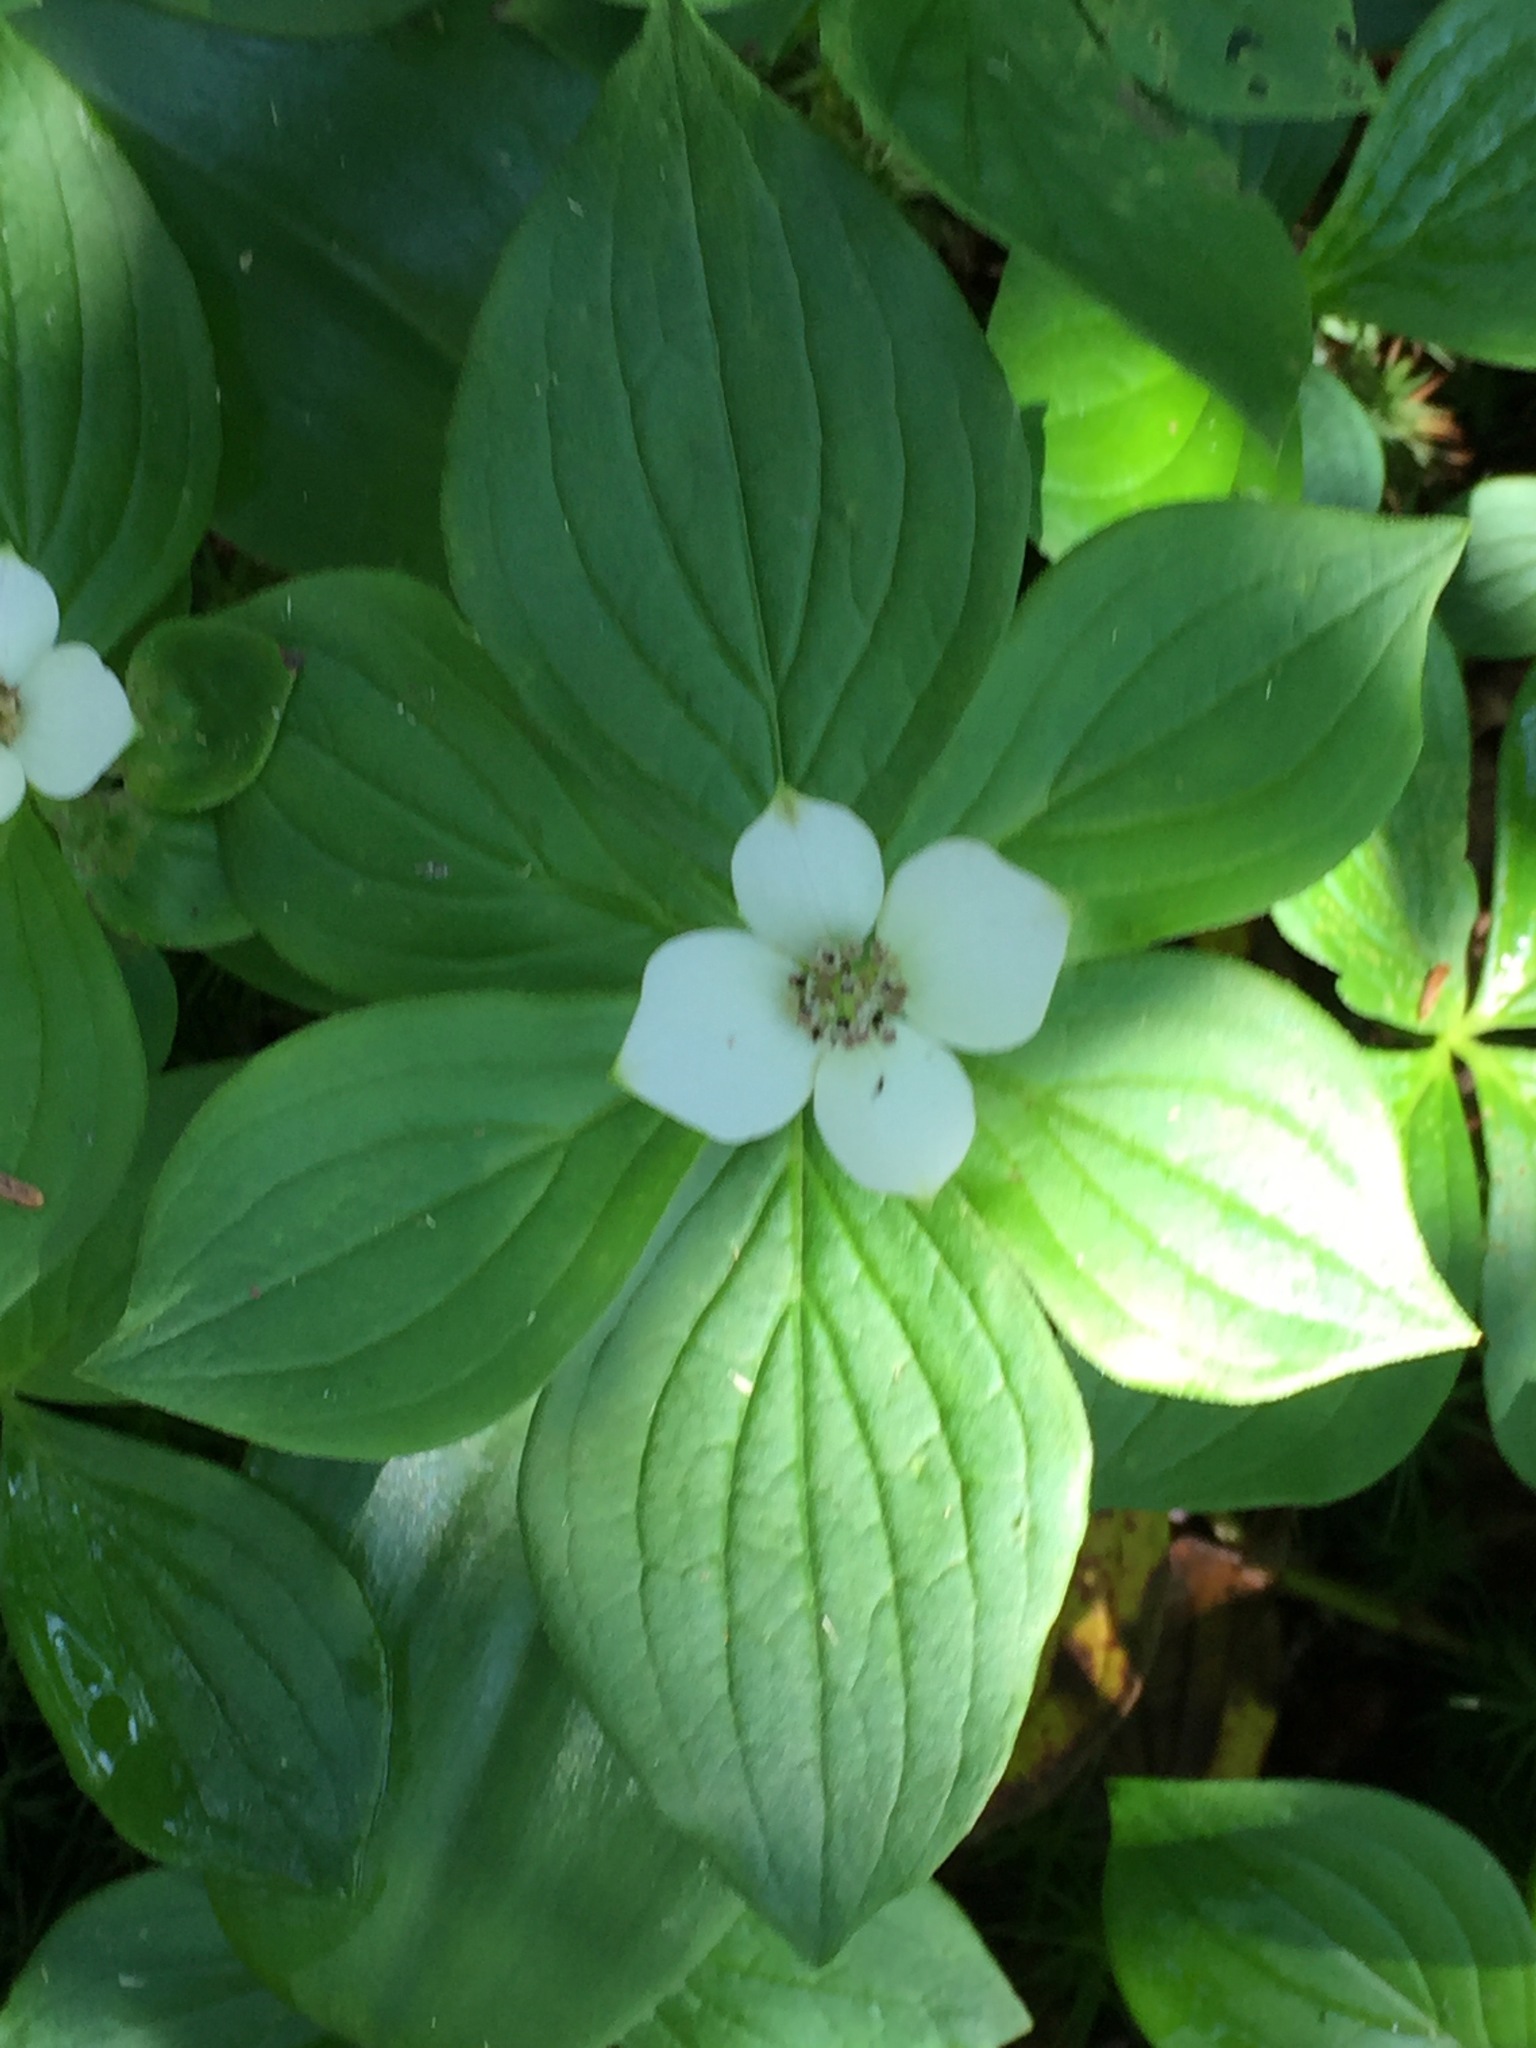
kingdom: Plantae
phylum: Tracheophyta
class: Magnoliopsida
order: Cornales
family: Cornaceae
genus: Cornus
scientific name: Cornus canadensis
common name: Creeping dogwood
